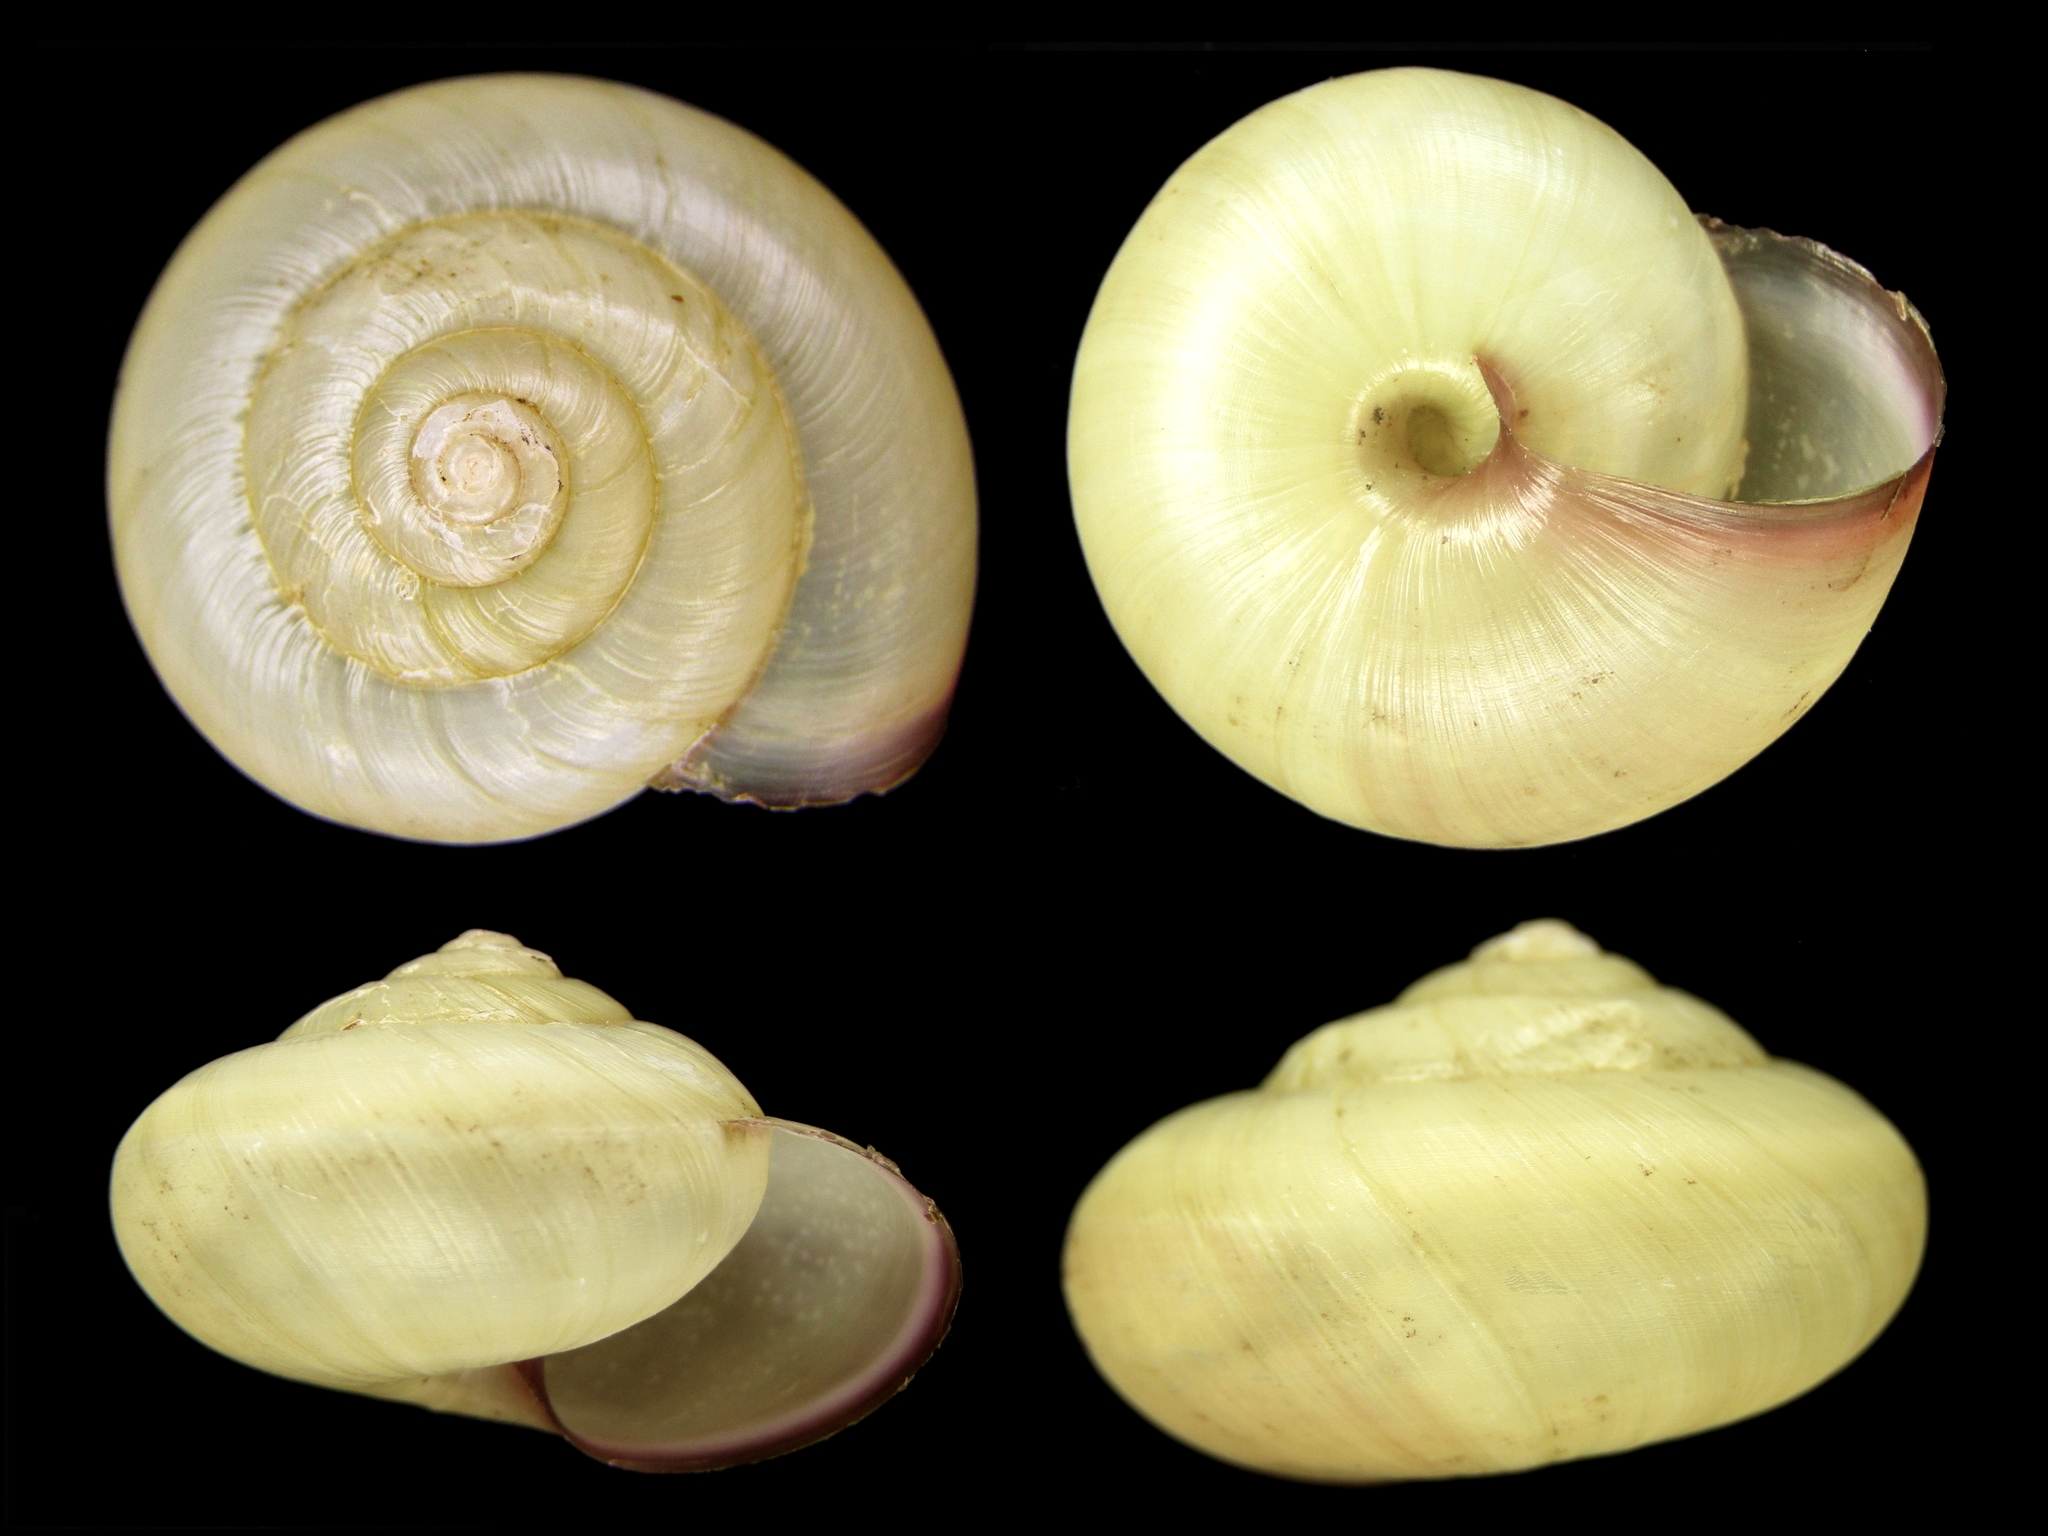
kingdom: Animalia
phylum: Mollusca
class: Gastropoda
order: Stylommatophora
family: Camaenidae
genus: Euhadra
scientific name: Euhadra amaliae
